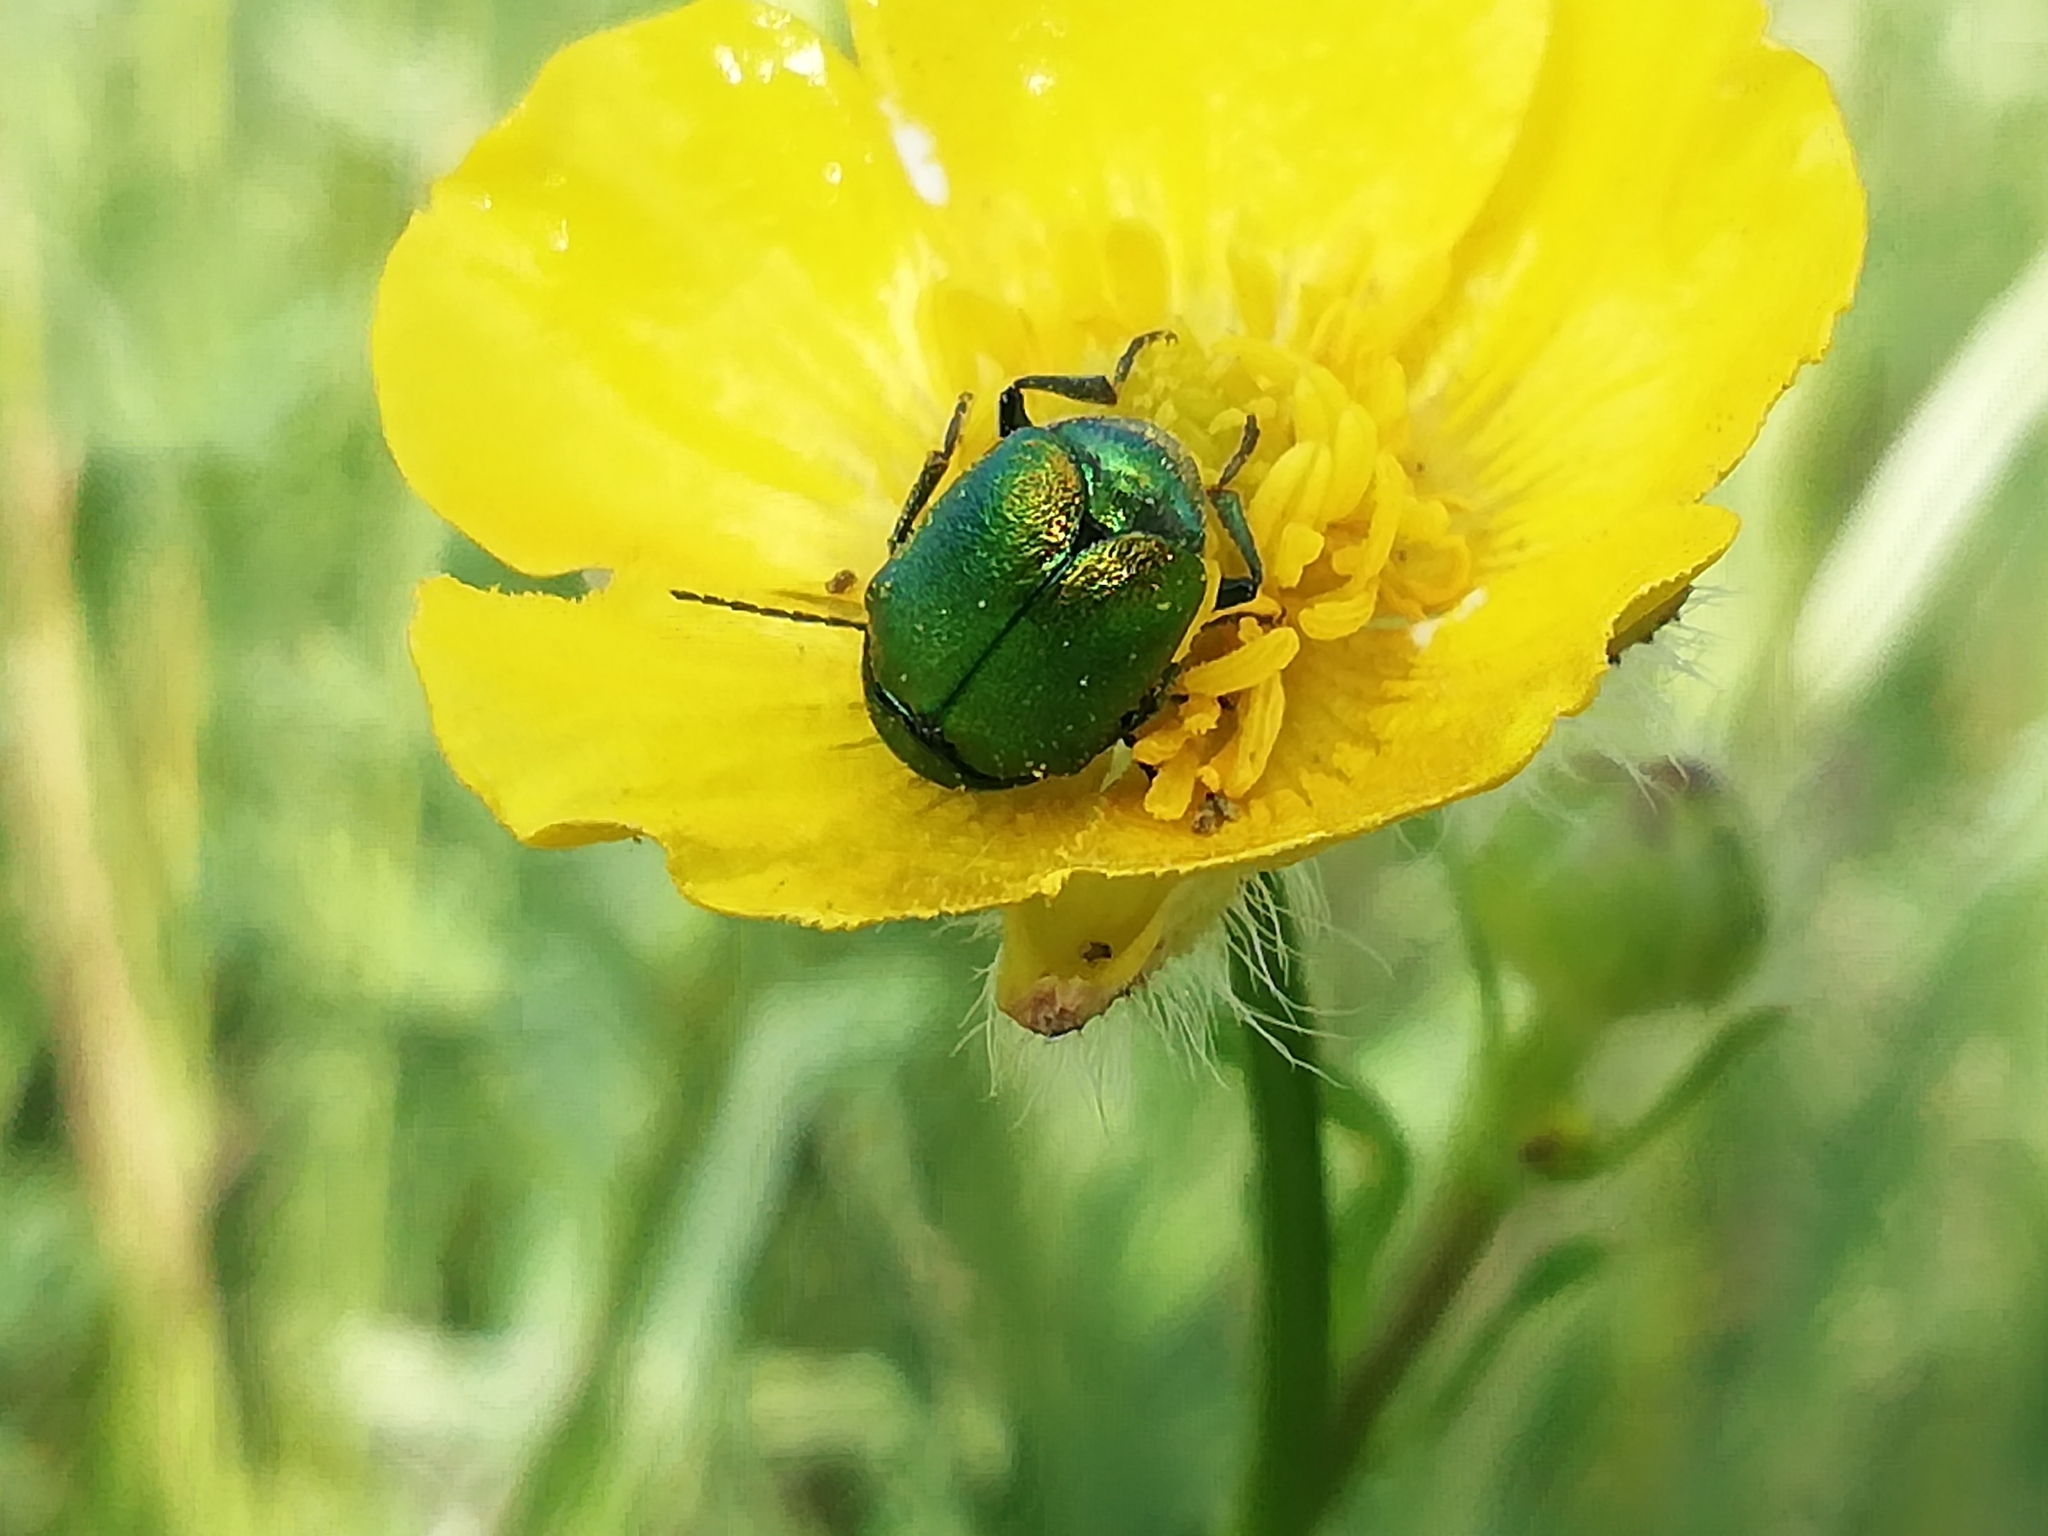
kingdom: Animalia
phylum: Arthropoda
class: Insecta
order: Coleoptera
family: Chrysomelidae
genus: Cryptocephalus
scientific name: Cryptocephalus sericeus
